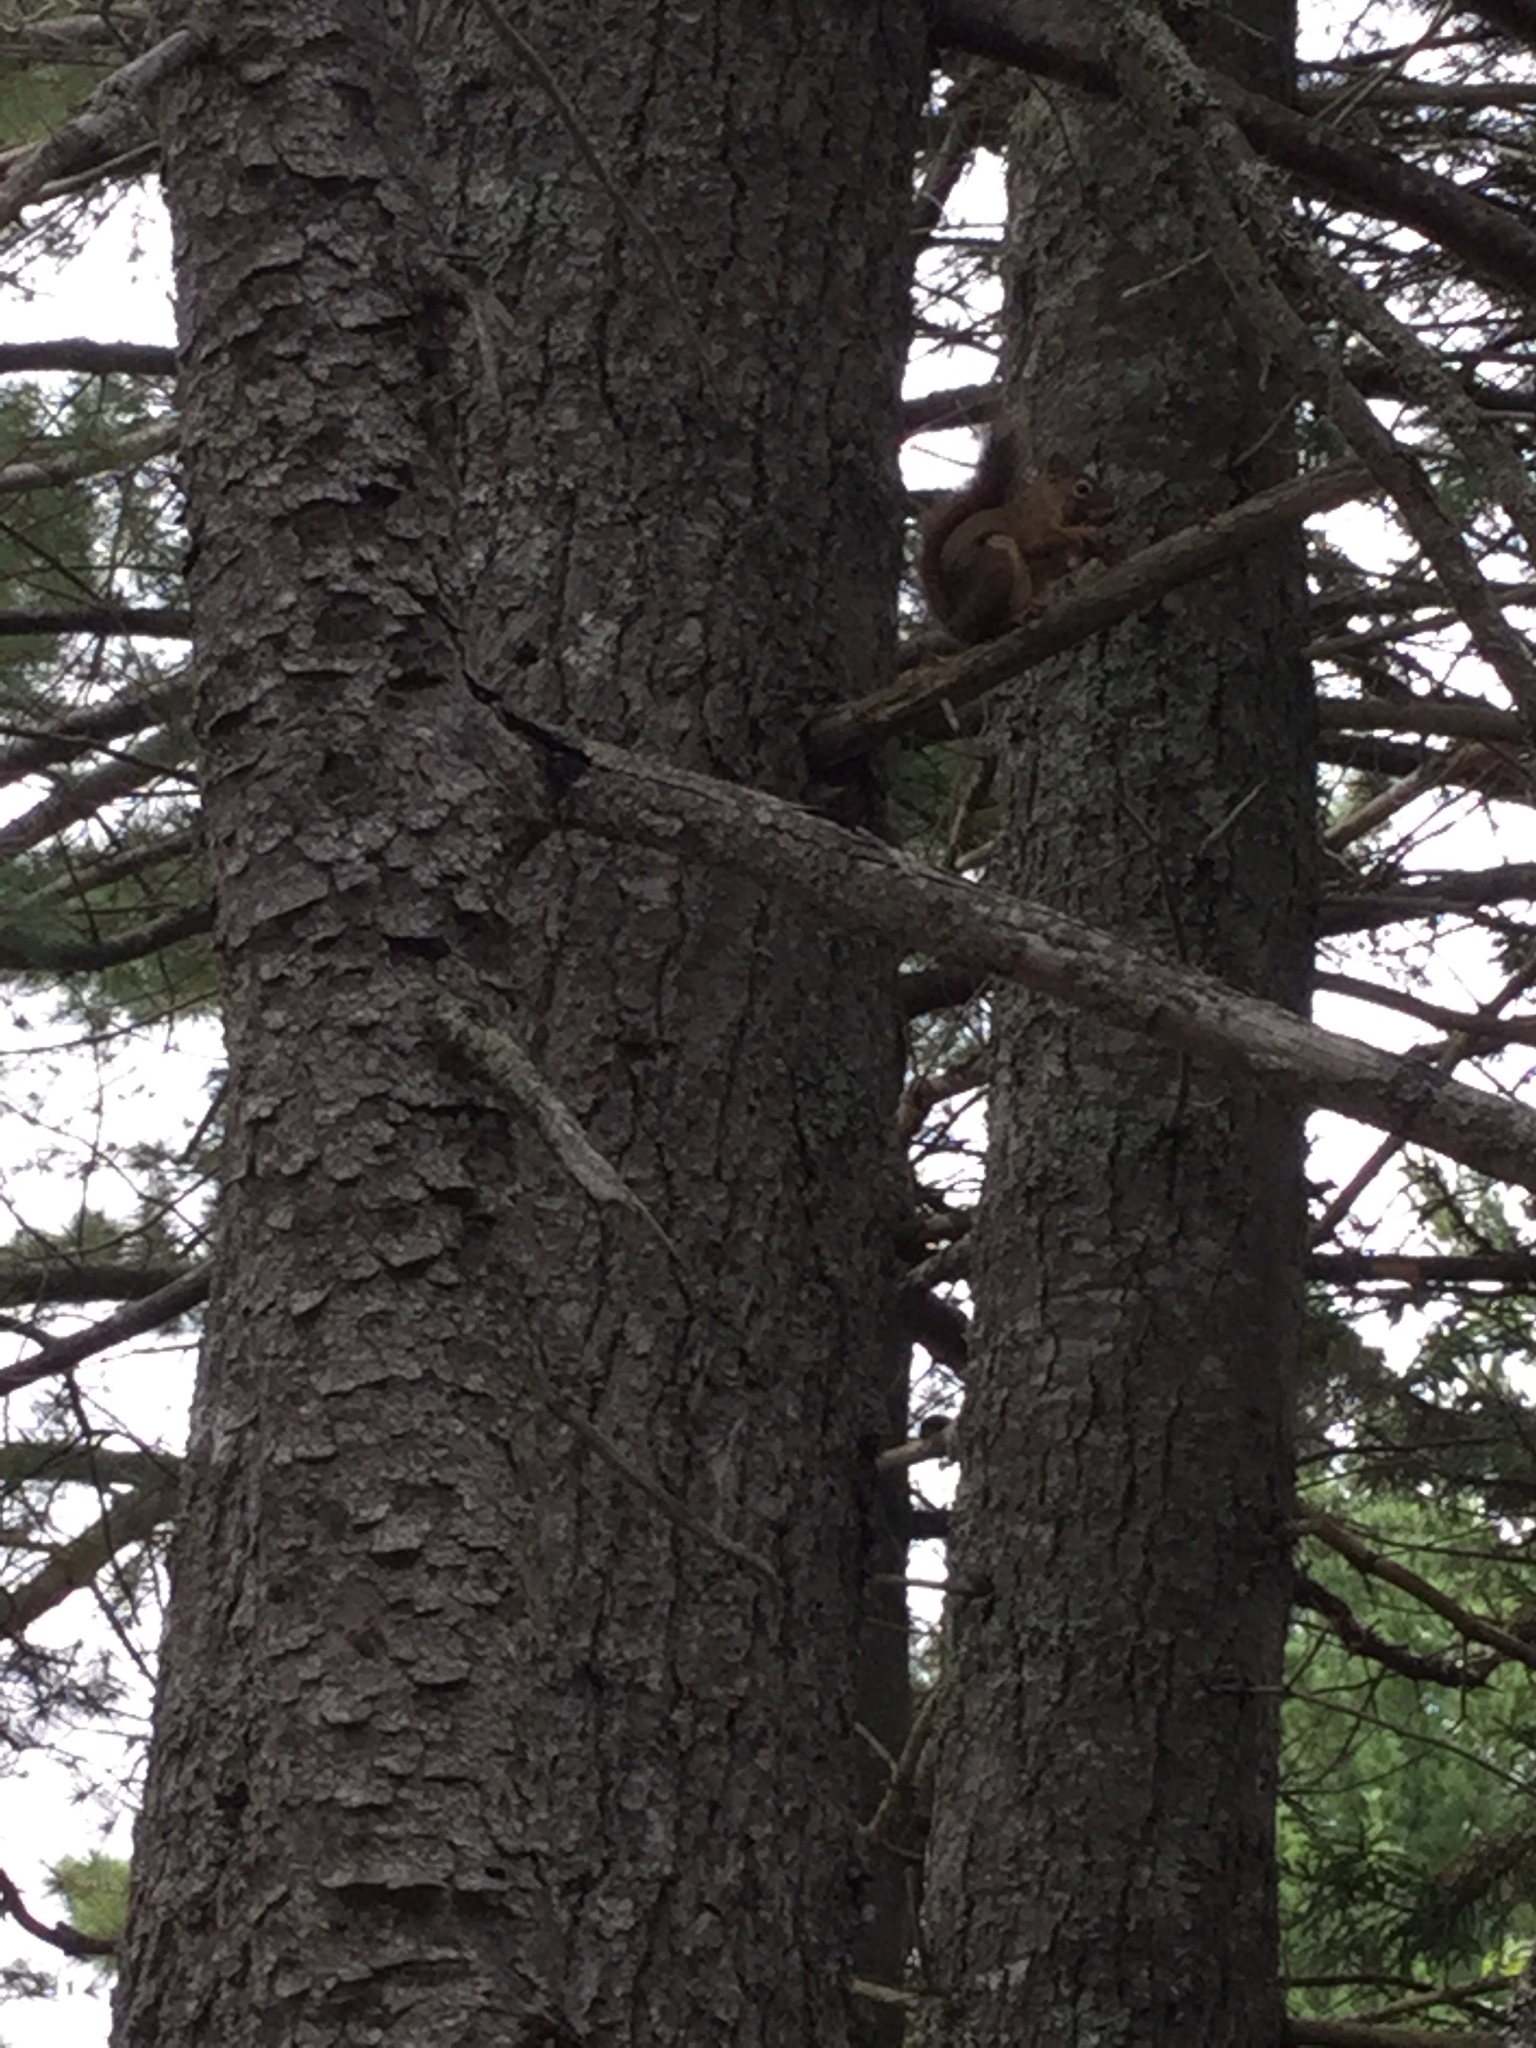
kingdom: Animalia
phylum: Chordata
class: Mammalia
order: Rodentia
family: Sciuridae
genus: Tamiasciurus
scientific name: Tamiasciurus hudsonicus
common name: Red squirrel
